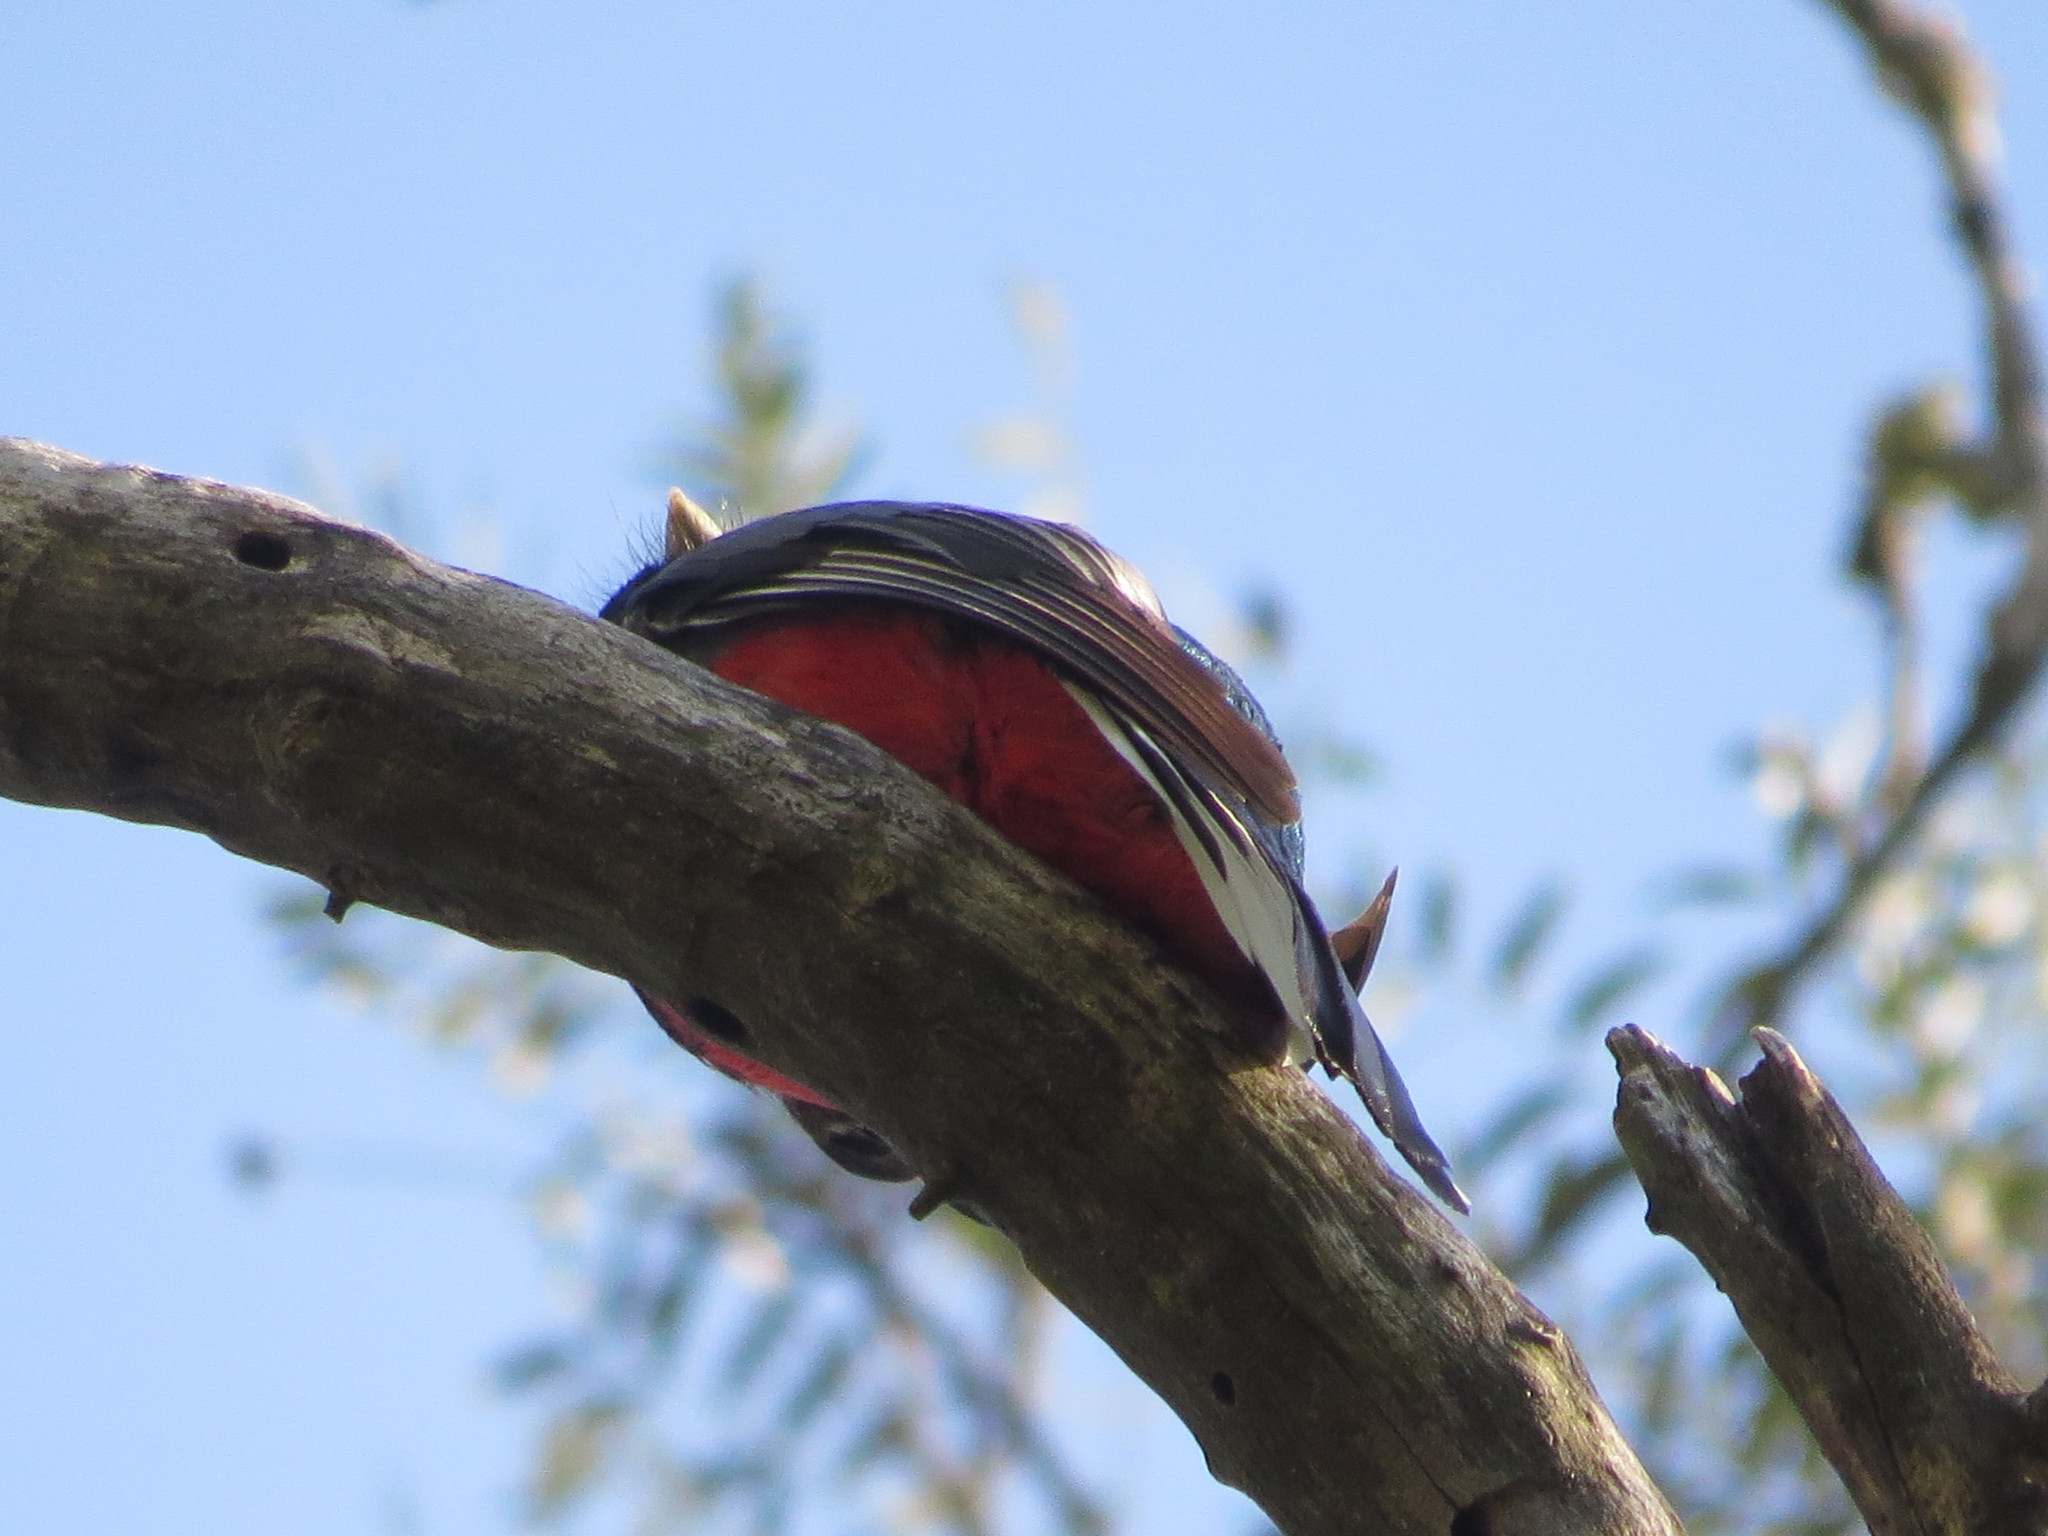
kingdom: Animalia
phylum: Chordata
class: Aves
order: Trogoniformes
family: Trogonidae
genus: Trogon
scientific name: Trogon surrucura
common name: Surucua trogon
